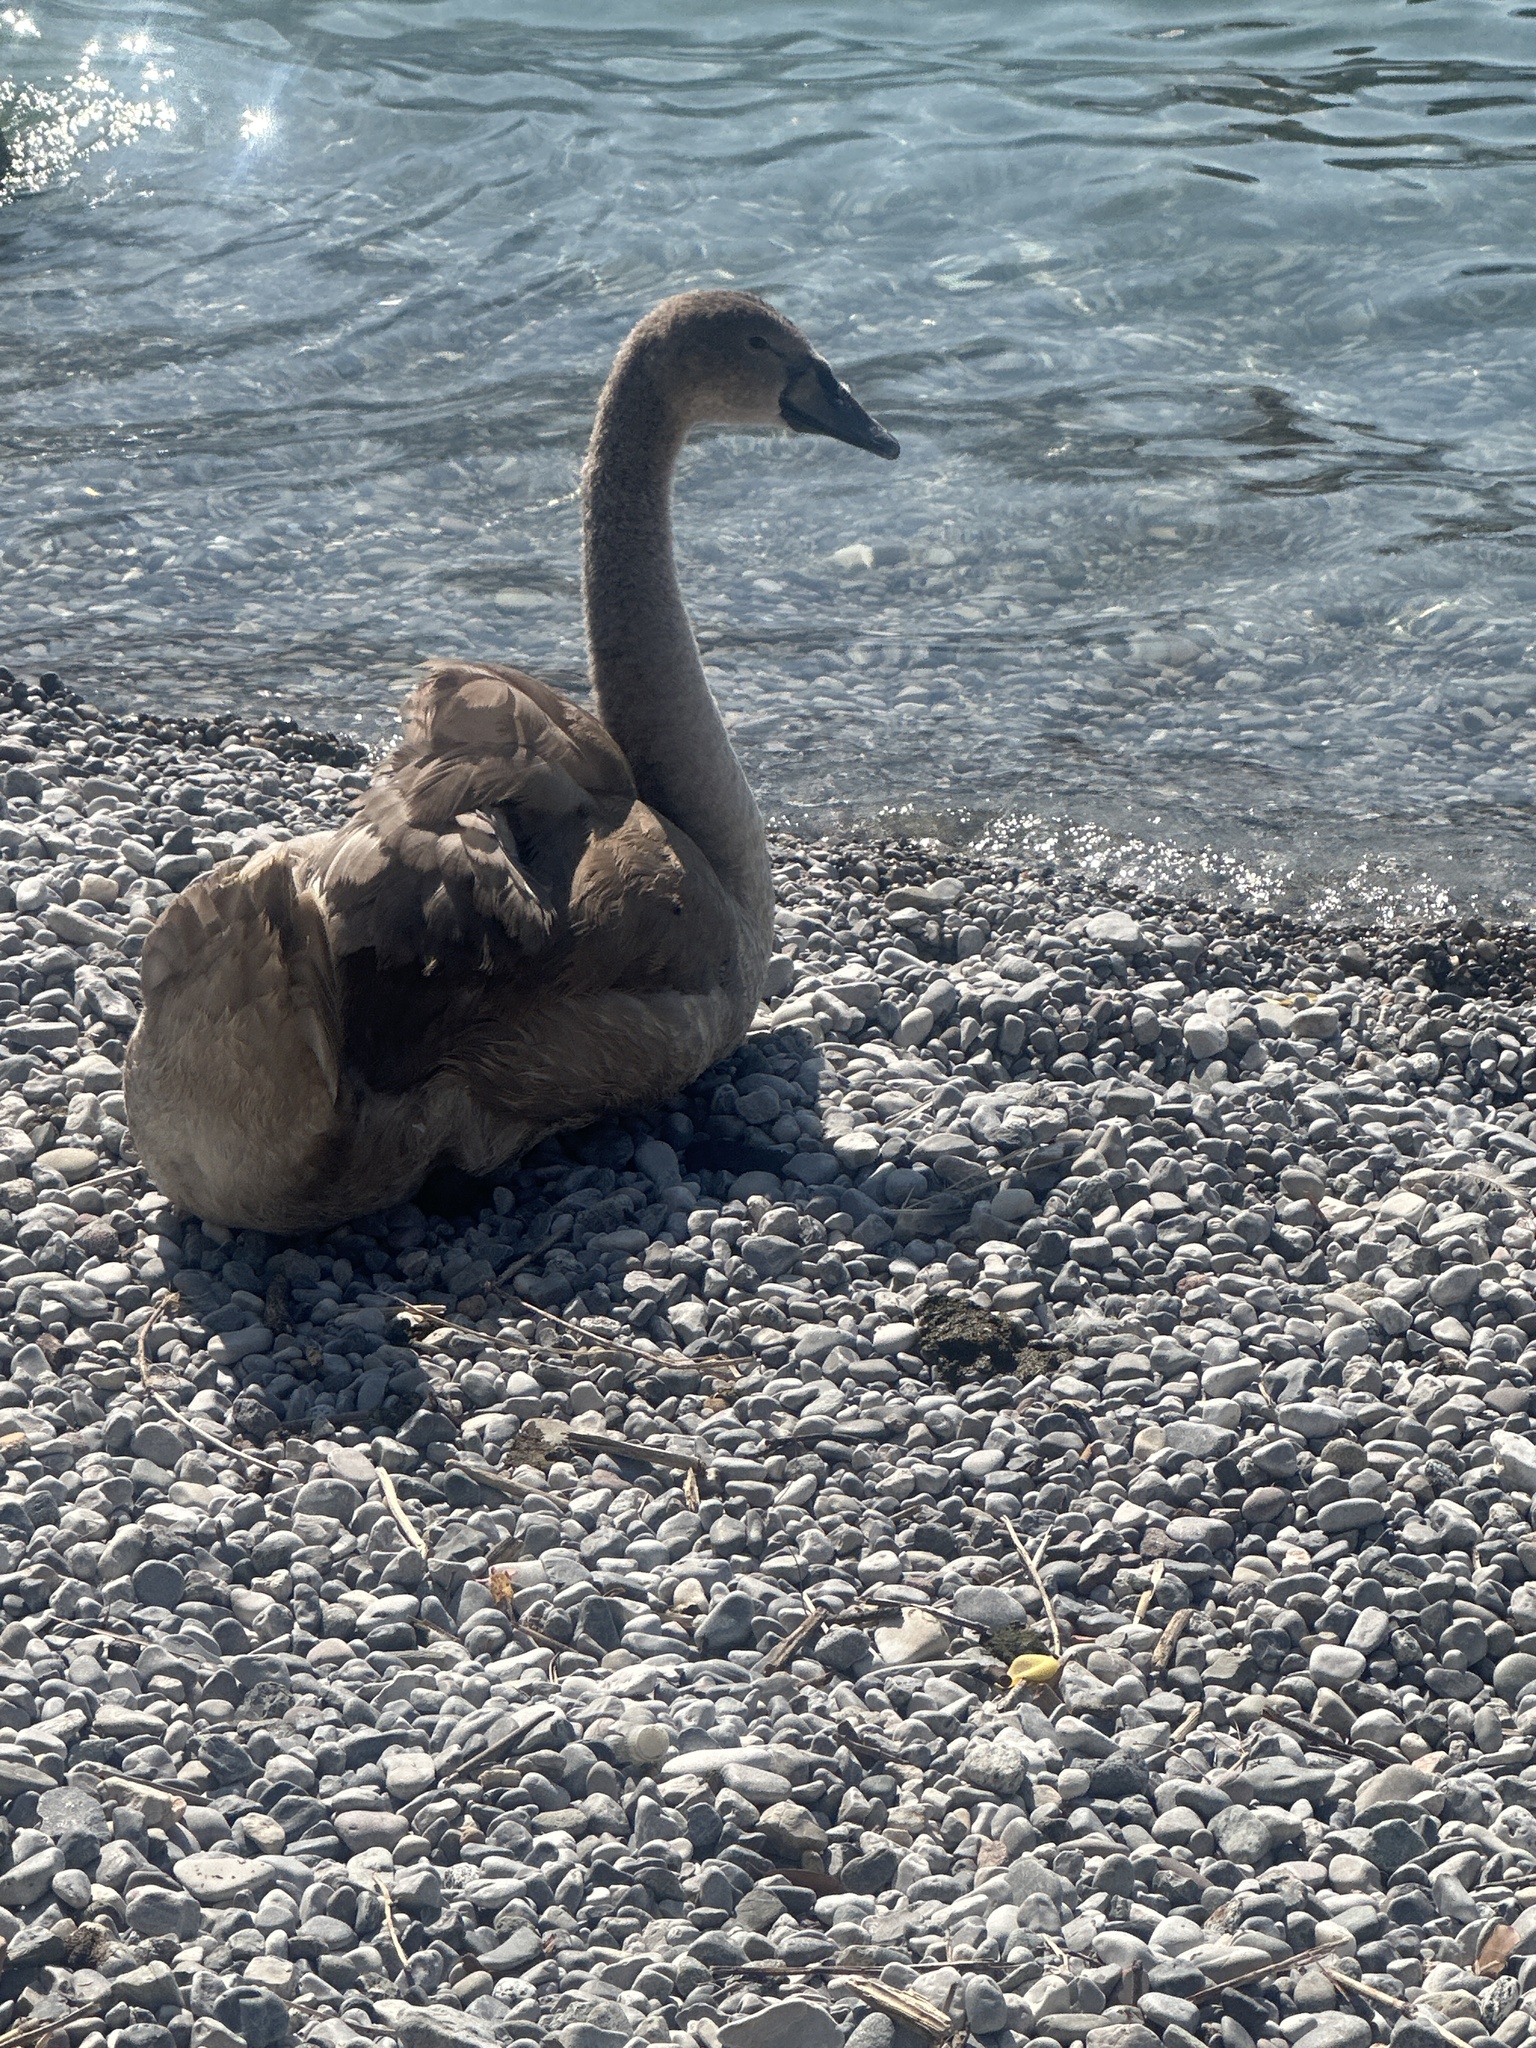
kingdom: Animalia
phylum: Chordata
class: Aves
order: Anseriformes
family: Anatidae
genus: Cygnus
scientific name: Cygnus olor
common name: Mute swan
